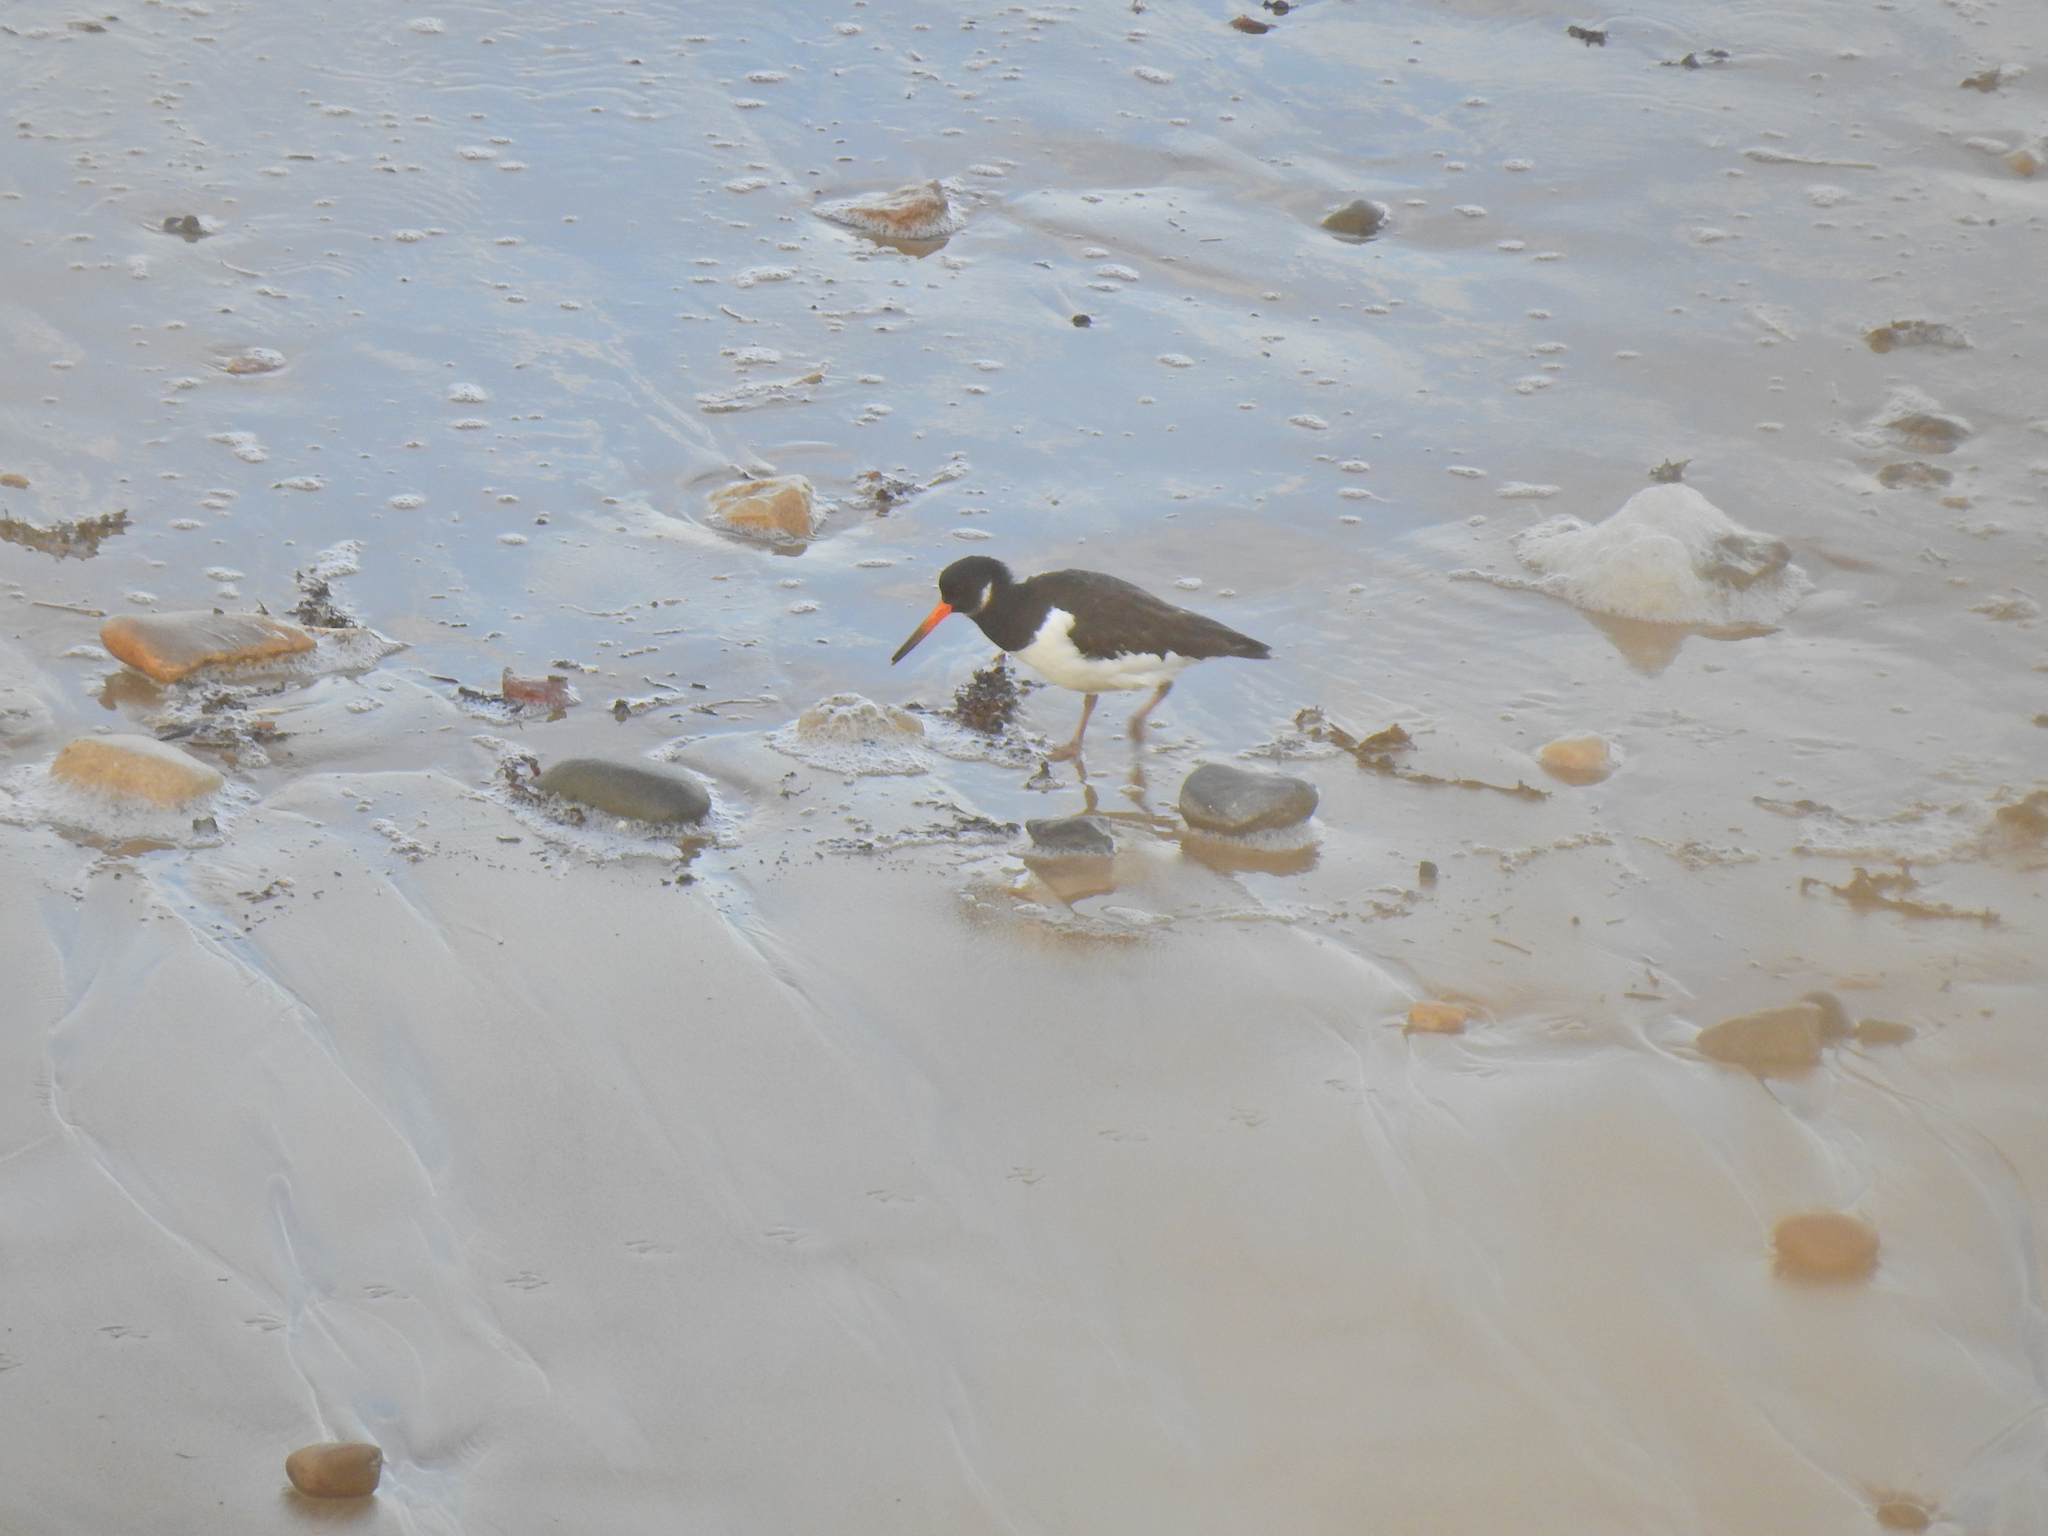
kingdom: Animalia
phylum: Chordata
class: Aves
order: Charadriiformes
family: Haematopodidae
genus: Haematopus
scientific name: Haematopus ostralegus
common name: Eurasian oystercatcher
